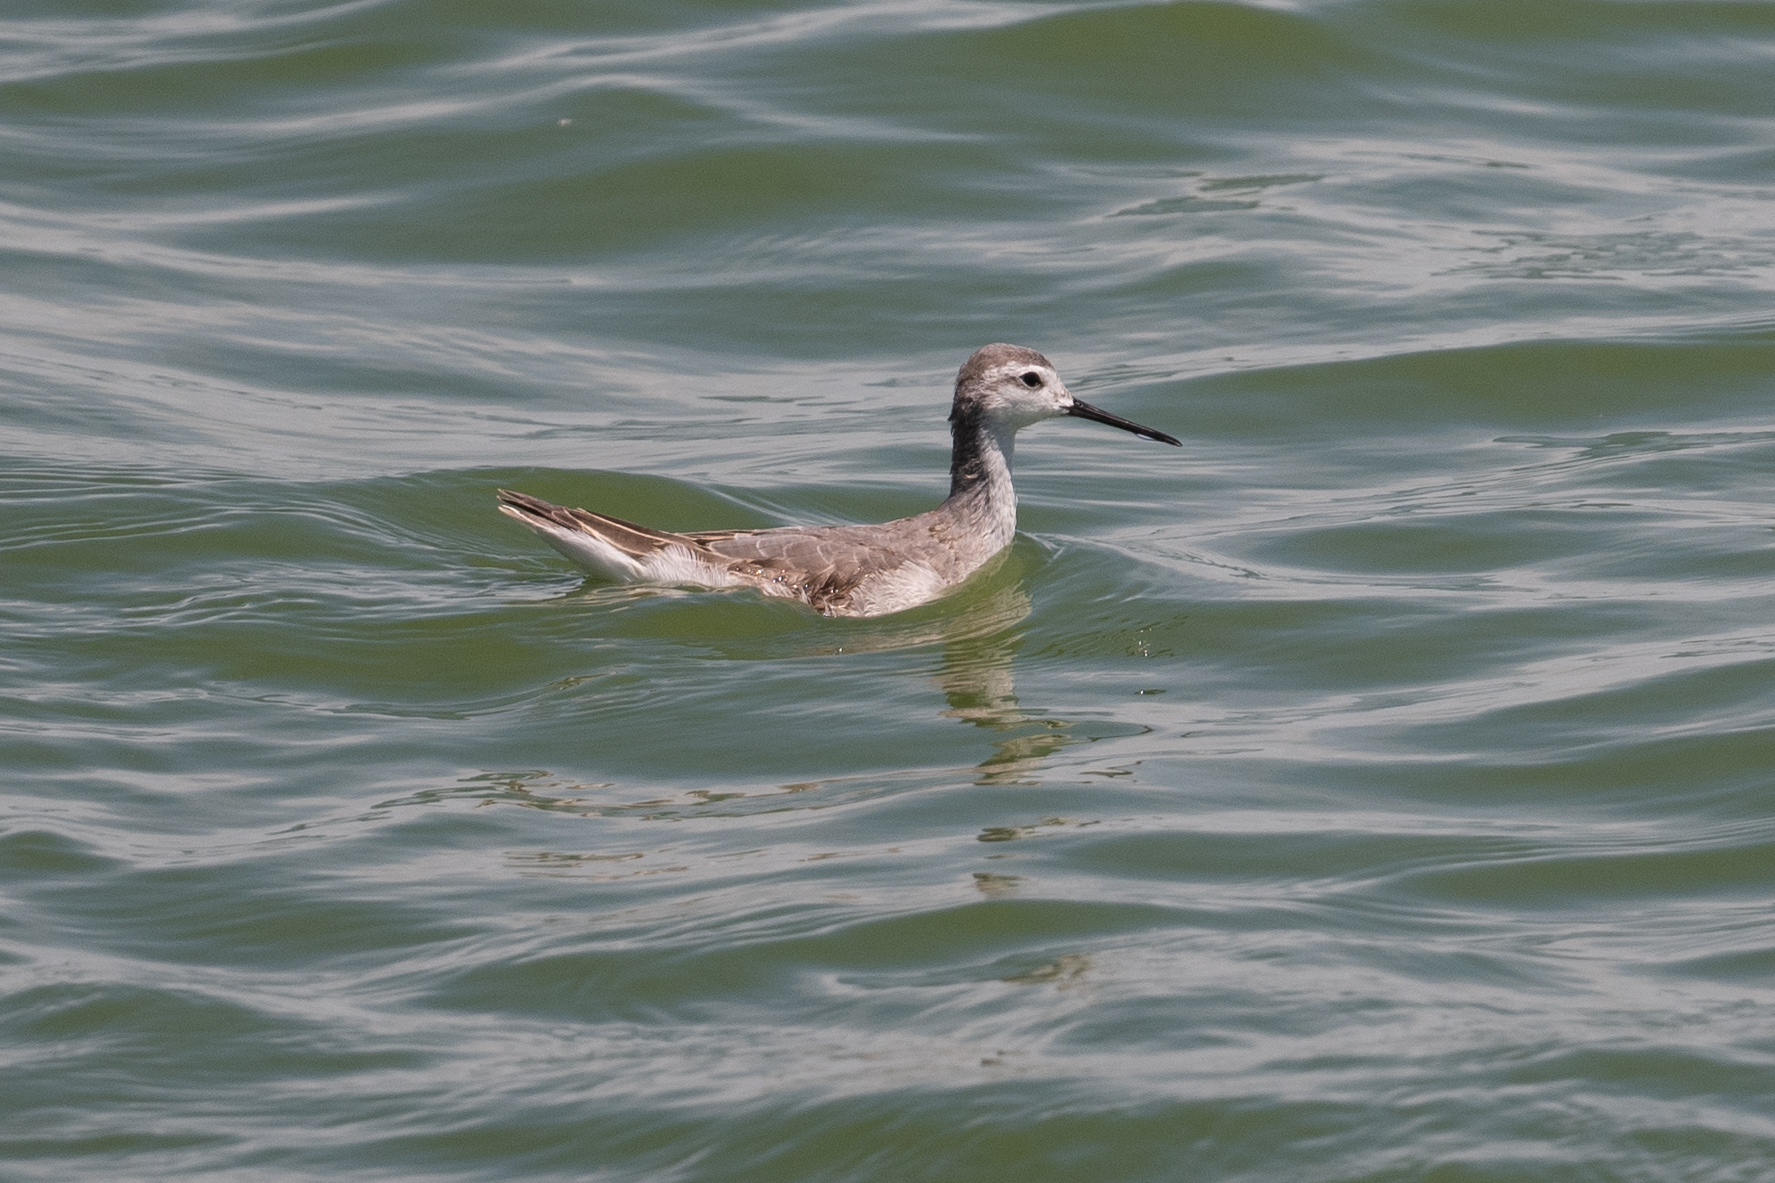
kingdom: Animalia
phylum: Chordata
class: Aves
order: Charadriiformes
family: Scolopacidae
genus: Phalaropus
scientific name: Phalaropus tricolor
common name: Wilson's phalarope
